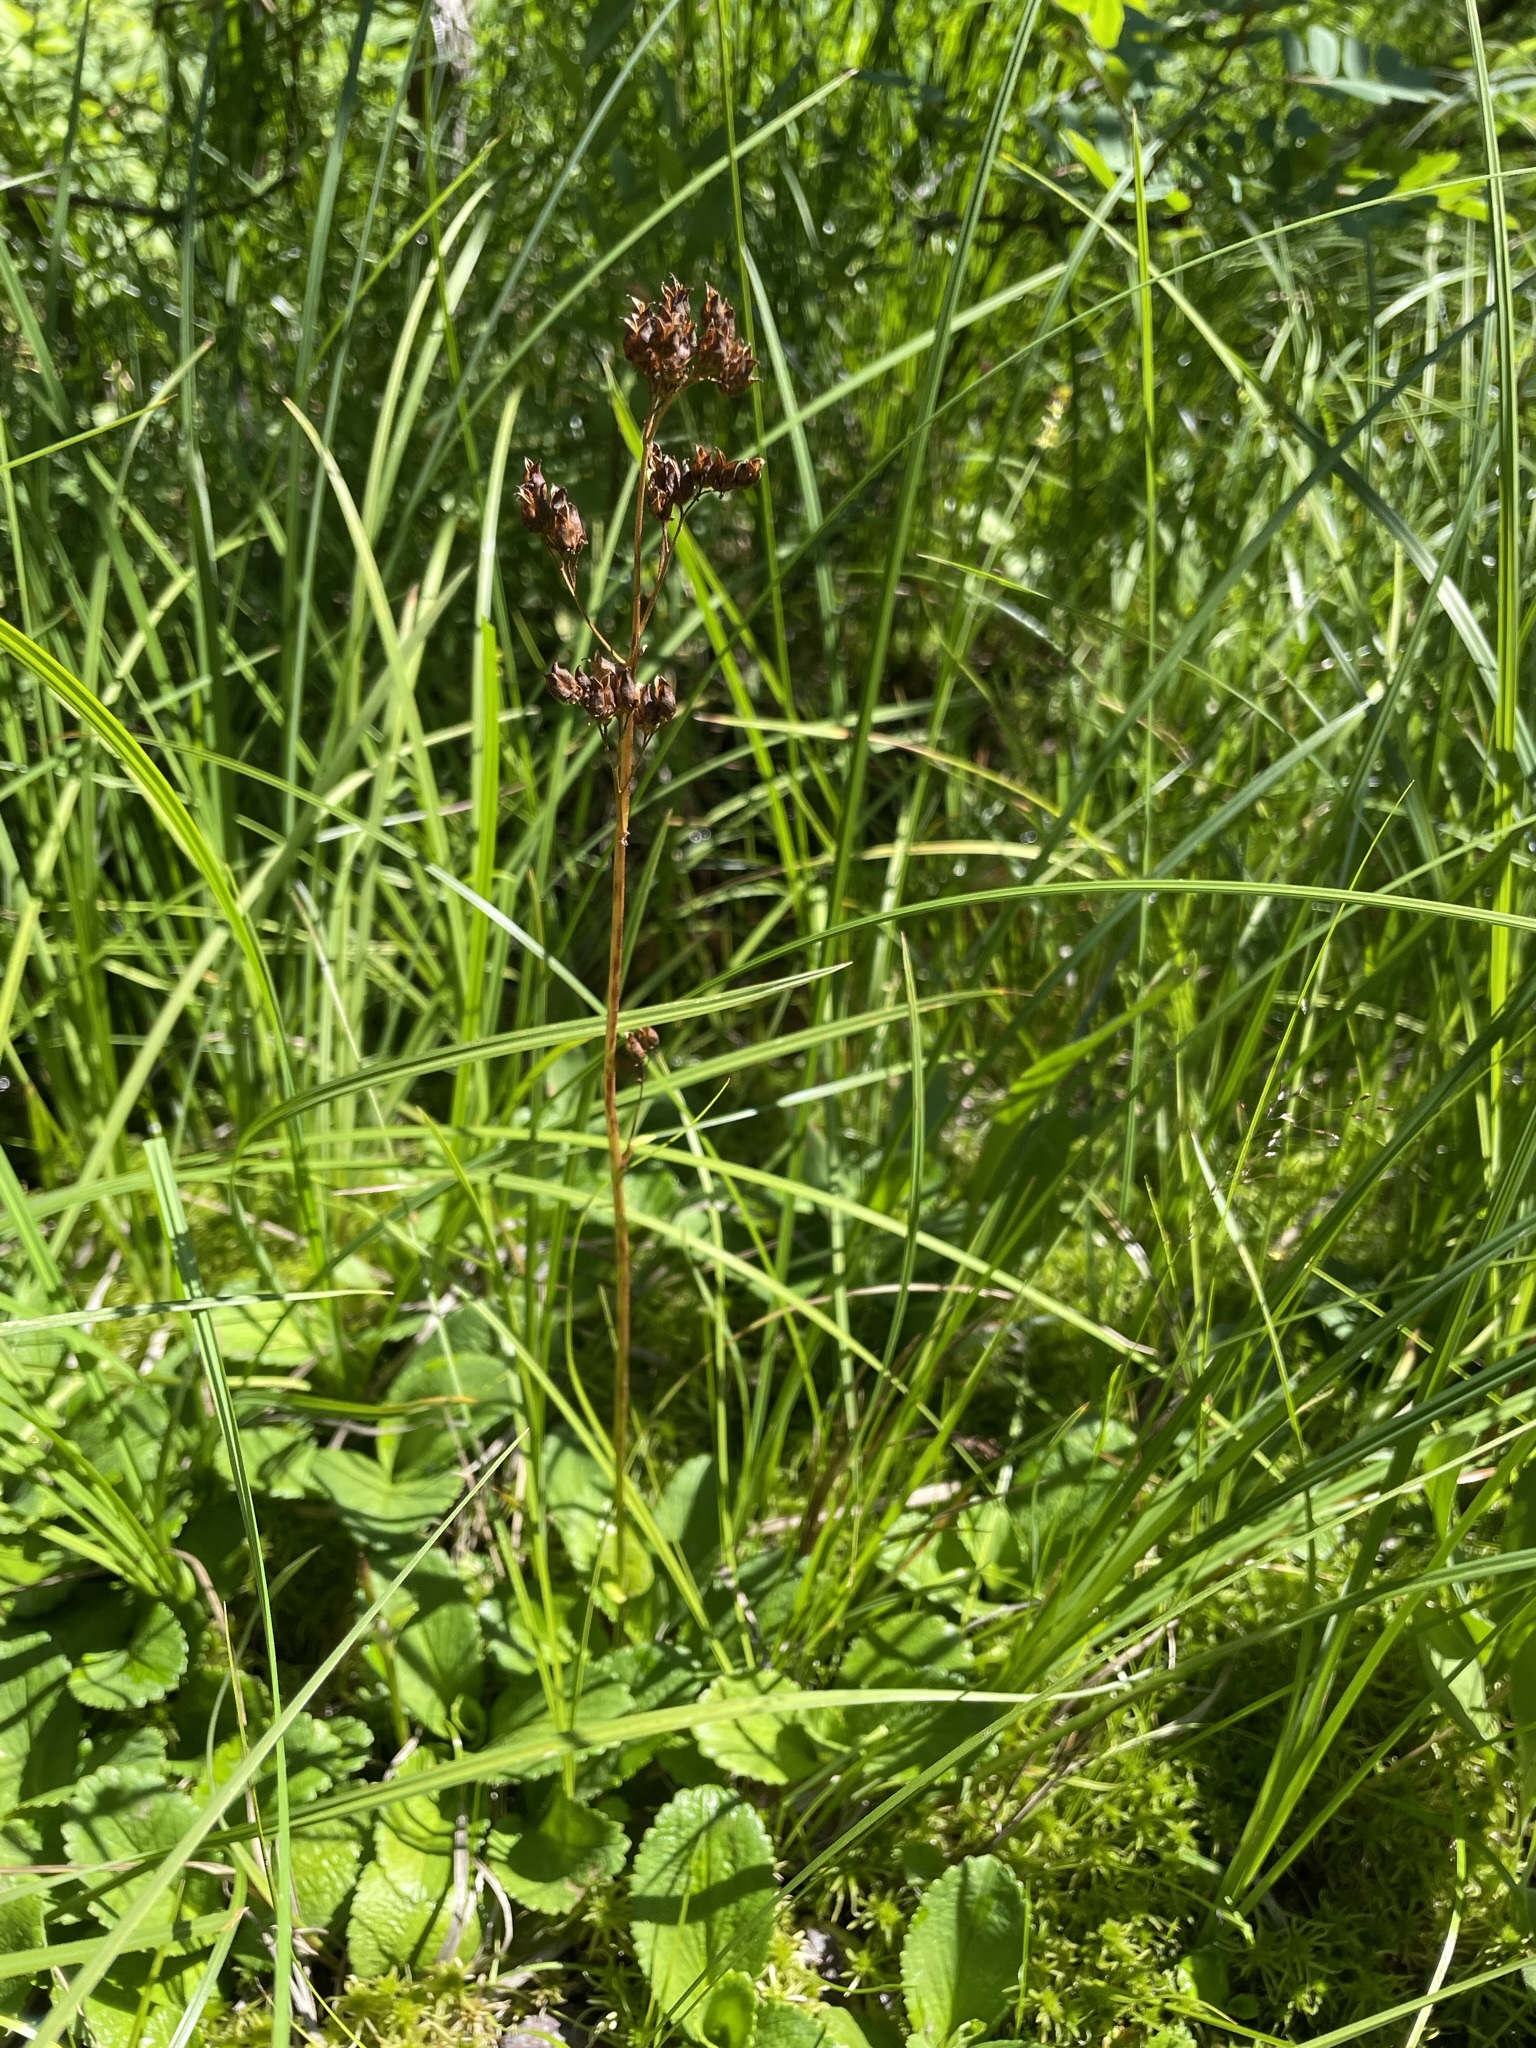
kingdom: Plantae
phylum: Tracheophyta
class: Magnoliopsida
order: Saxifragales
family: Saxifragaceae
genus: Leptarrhena
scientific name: Leptarrhena pyrolifolia
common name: Leatherleaf-saxifrage
